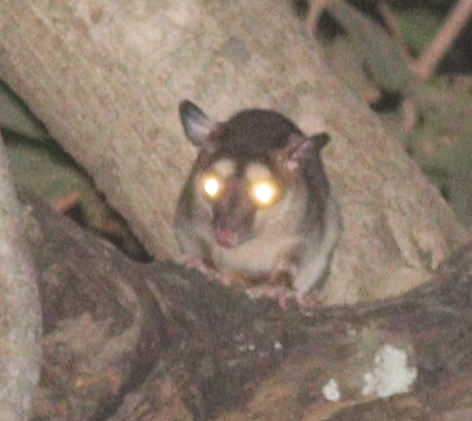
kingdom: Animalia
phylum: Chordata
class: Mammalia
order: Didelphimorphia
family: Didelphidae
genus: Philander
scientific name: Philander
